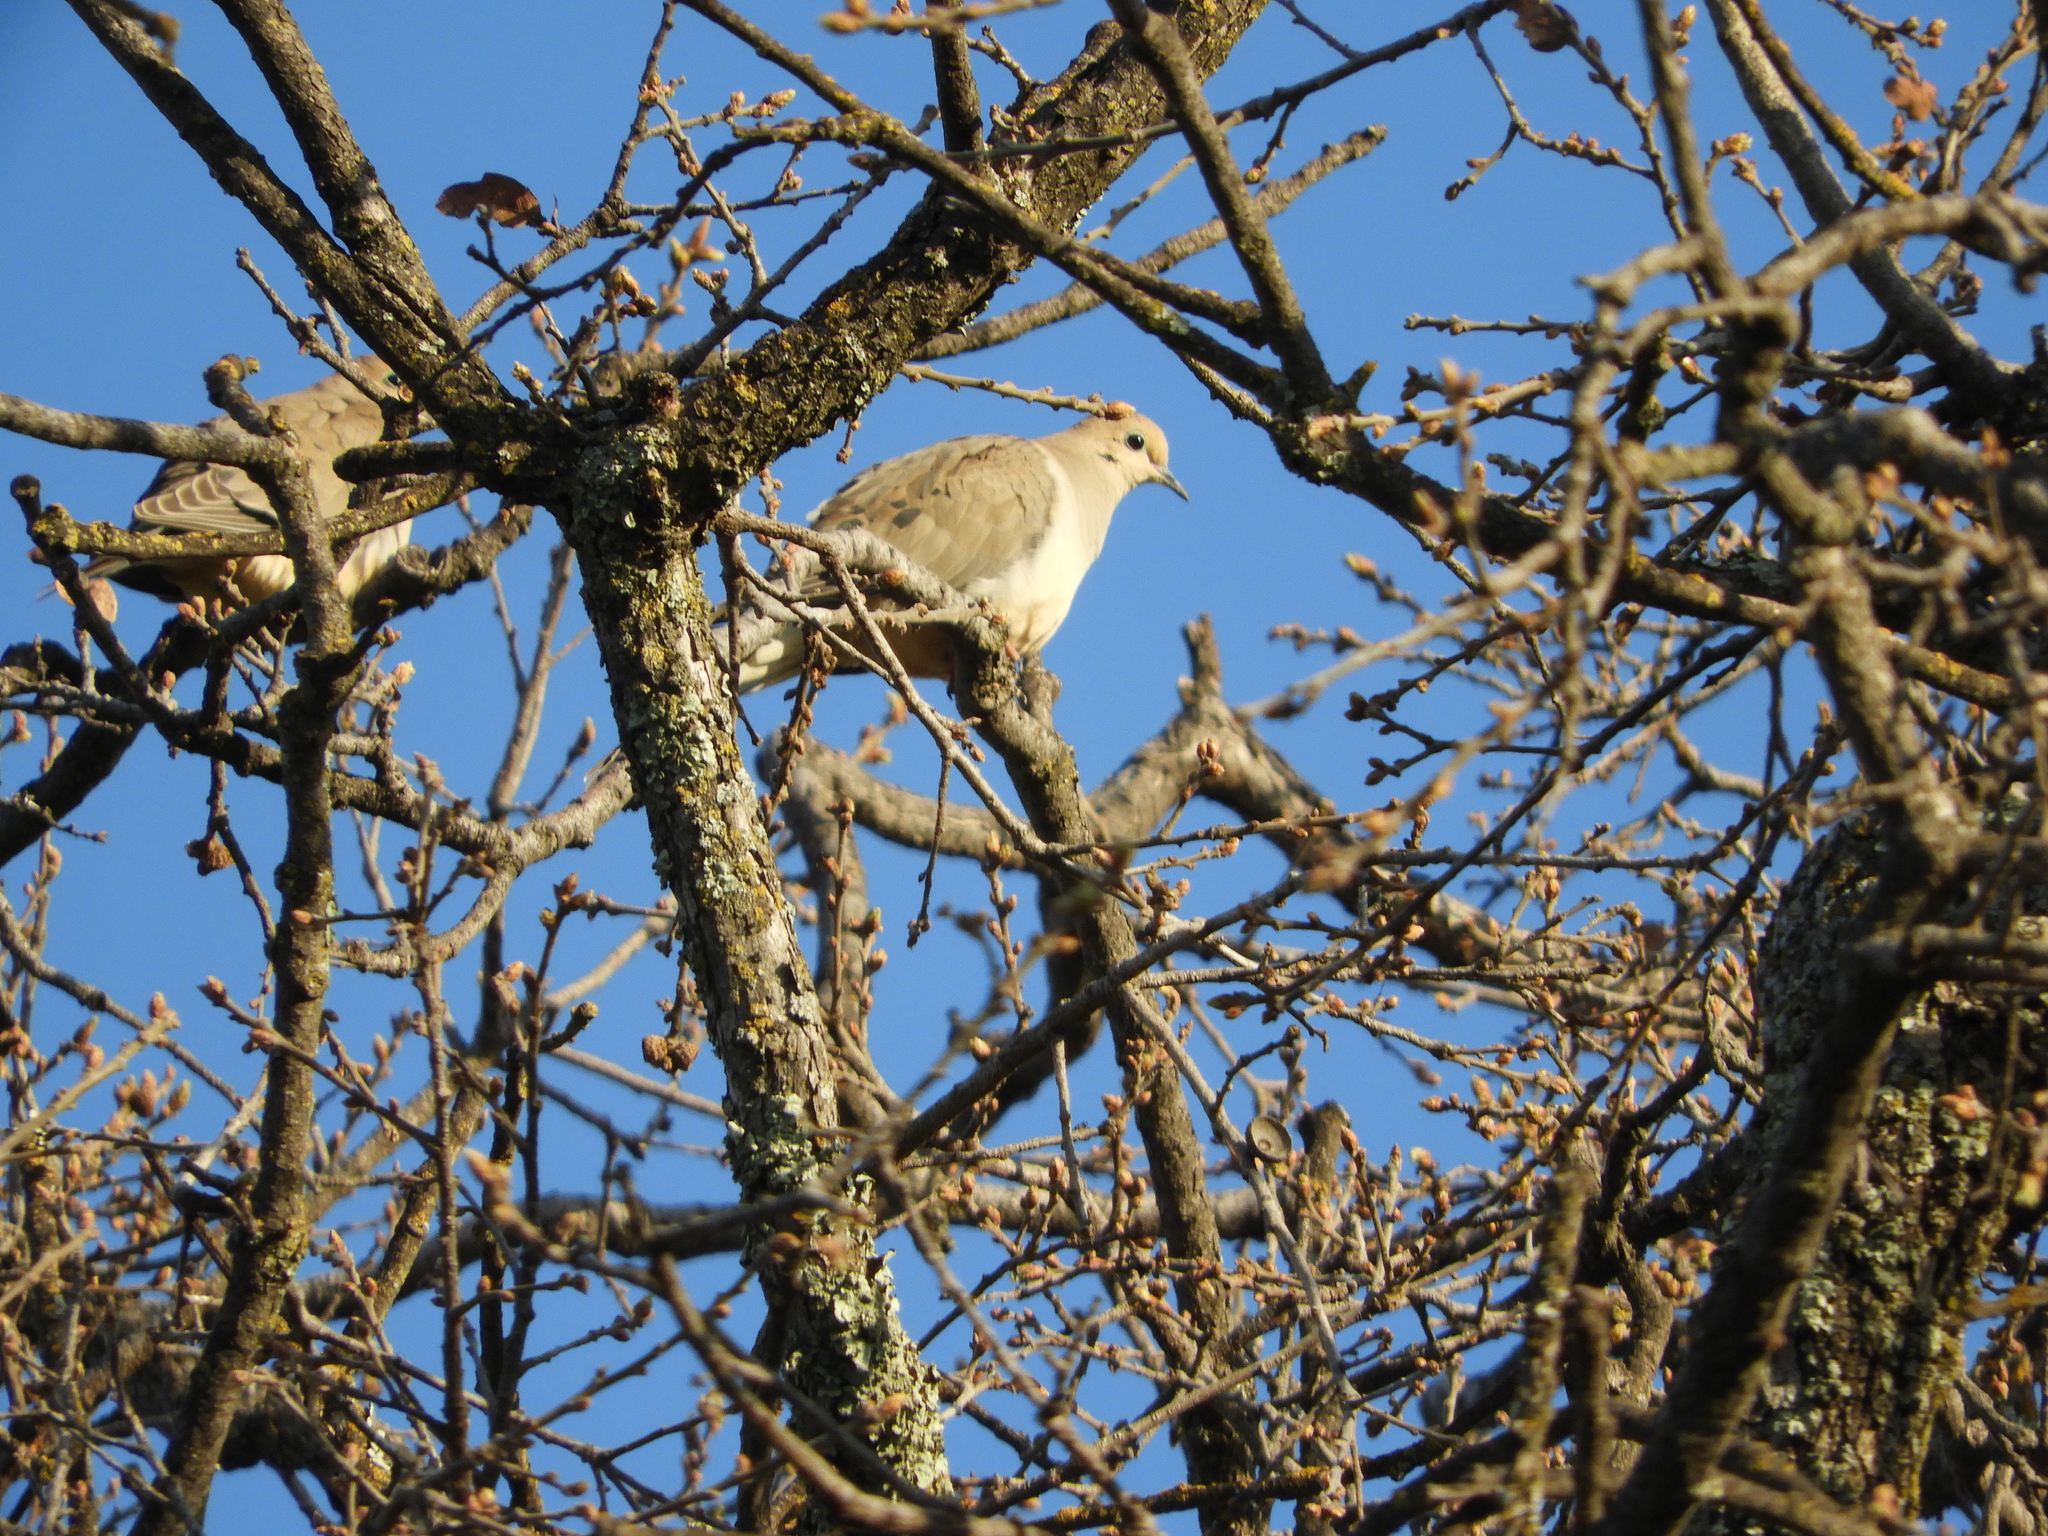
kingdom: Animalia
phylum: Chordata
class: Aves
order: Columbiformes
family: Columbidae
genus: Zenaida
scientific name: Zenaida macroura
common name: Mourning dove
